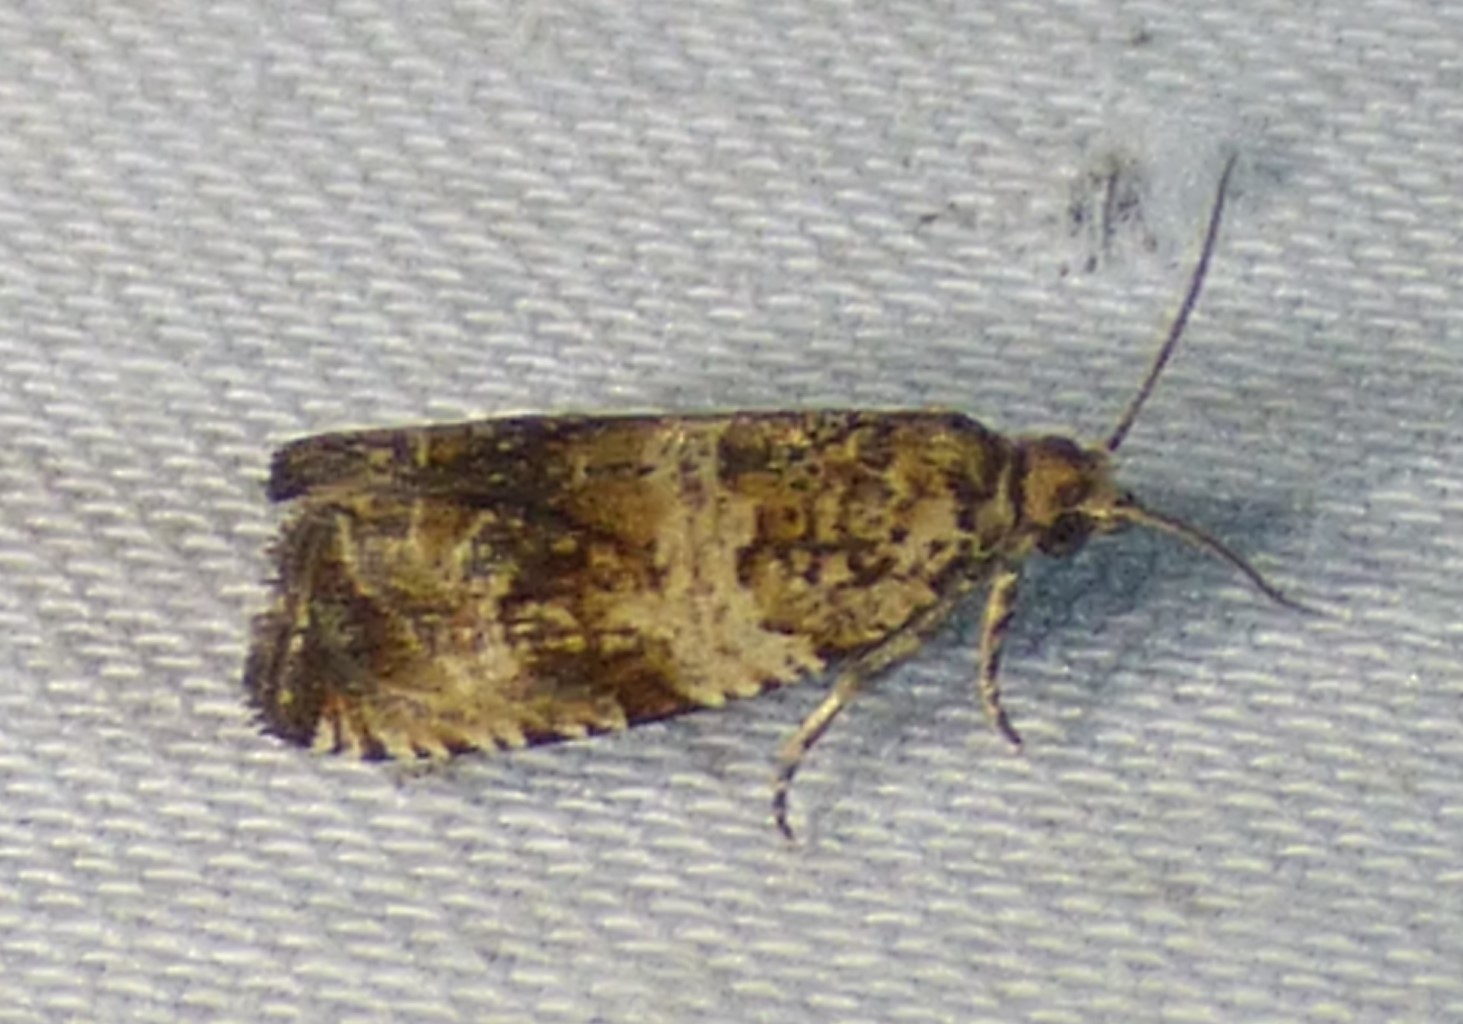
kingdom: Animalia
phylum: Arthropoda
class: Insecta
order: Lepidoptera
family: Tortricidae
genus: Celypha
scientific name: Celypha cespitana
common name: Thyme marble
